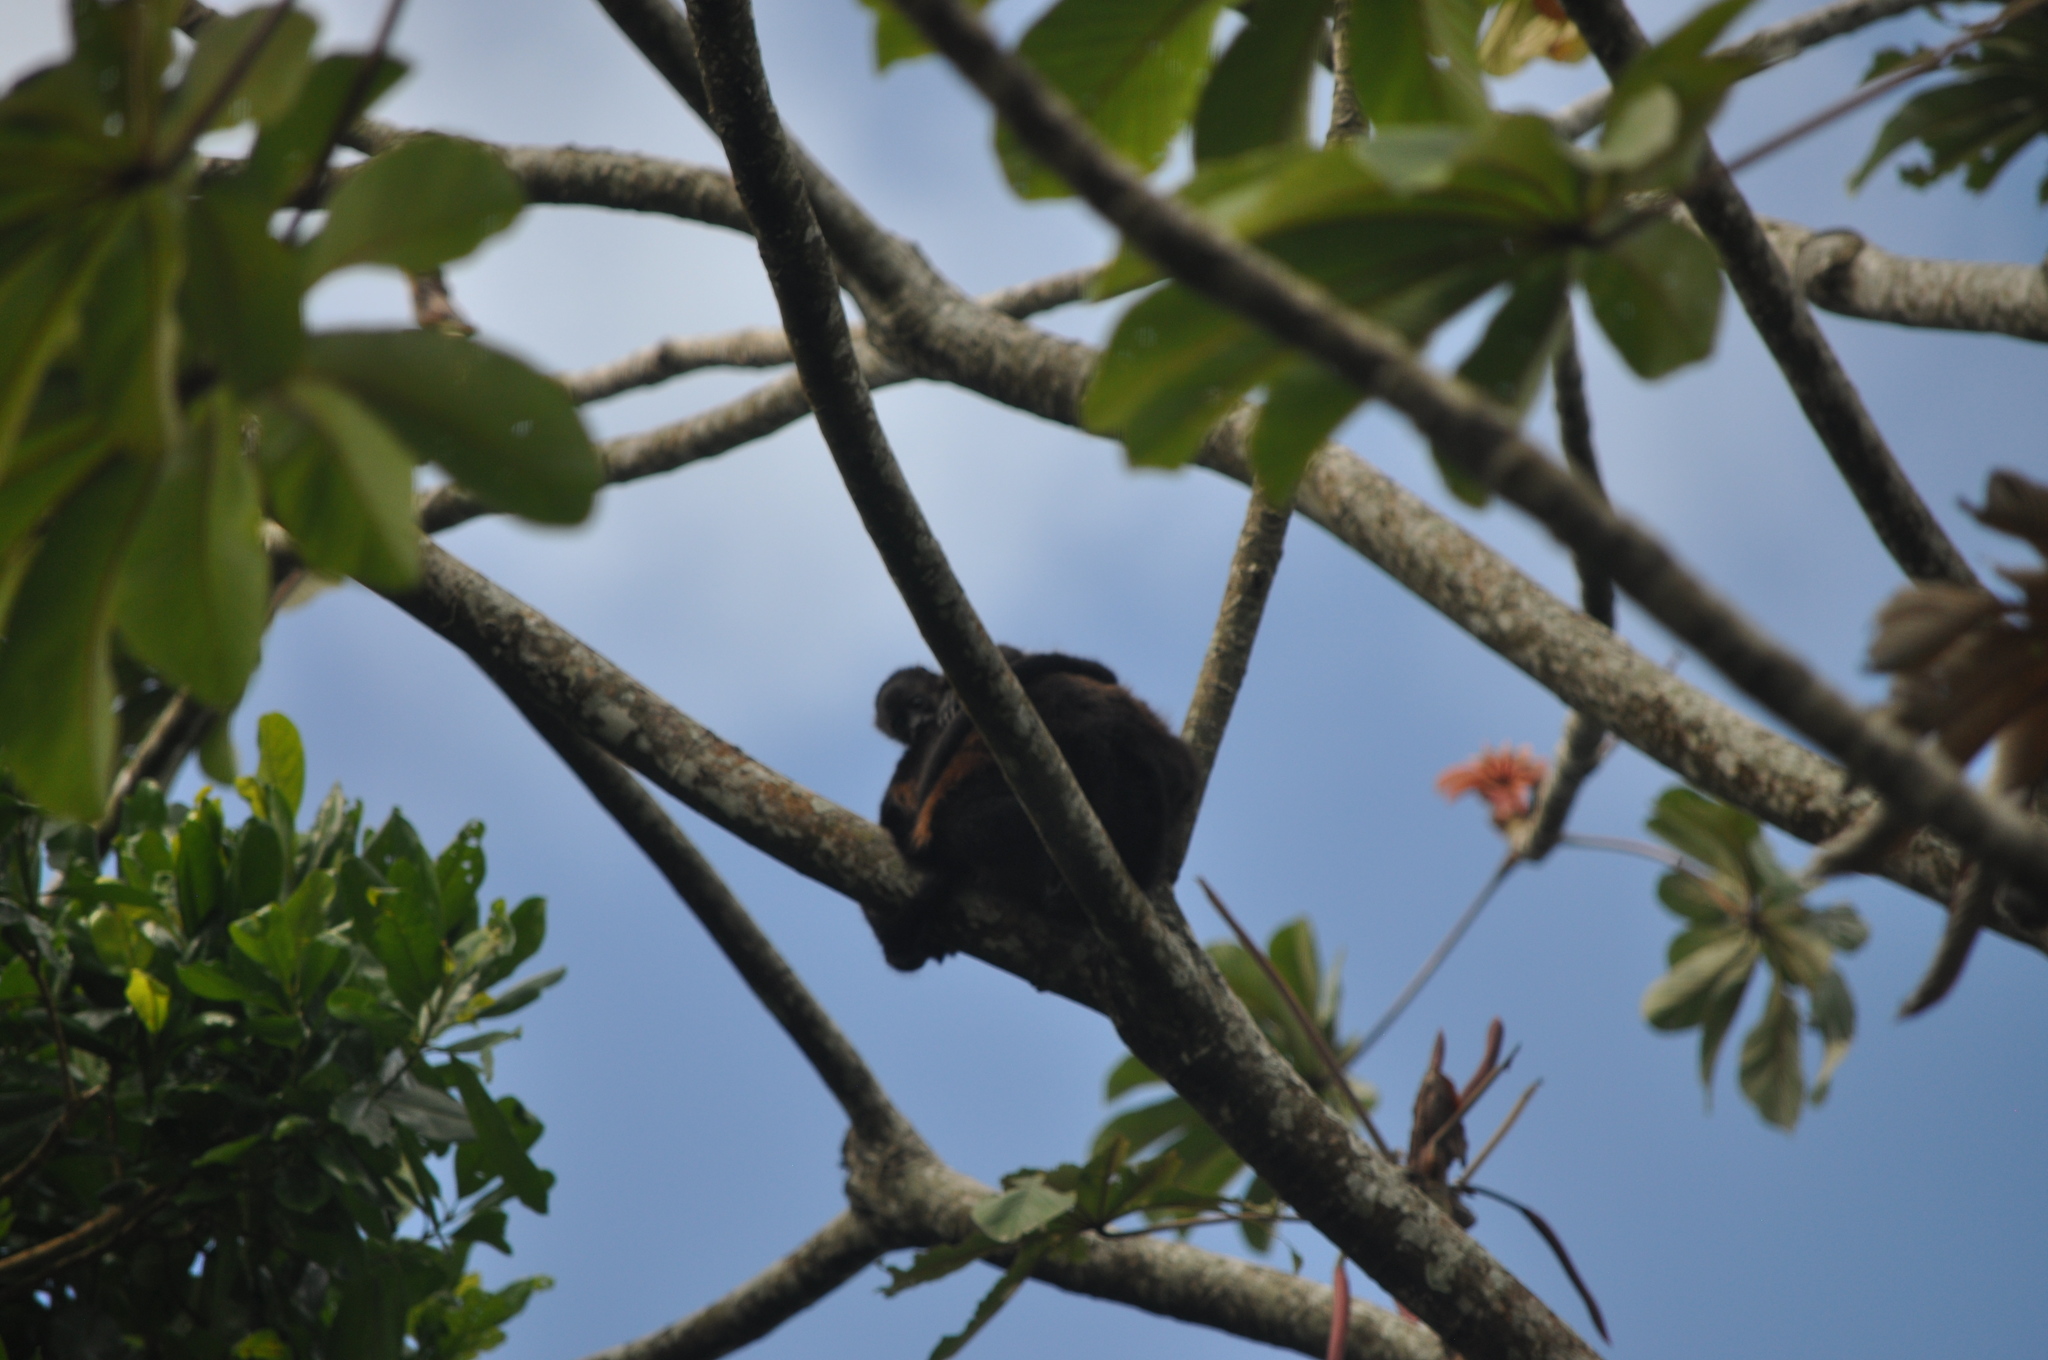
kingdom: Animalia
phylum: Chordata
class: Mammalia
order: Primates
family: Atelidae
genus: Alouatta
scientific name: Alouatta palliata
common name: Mantled howler
